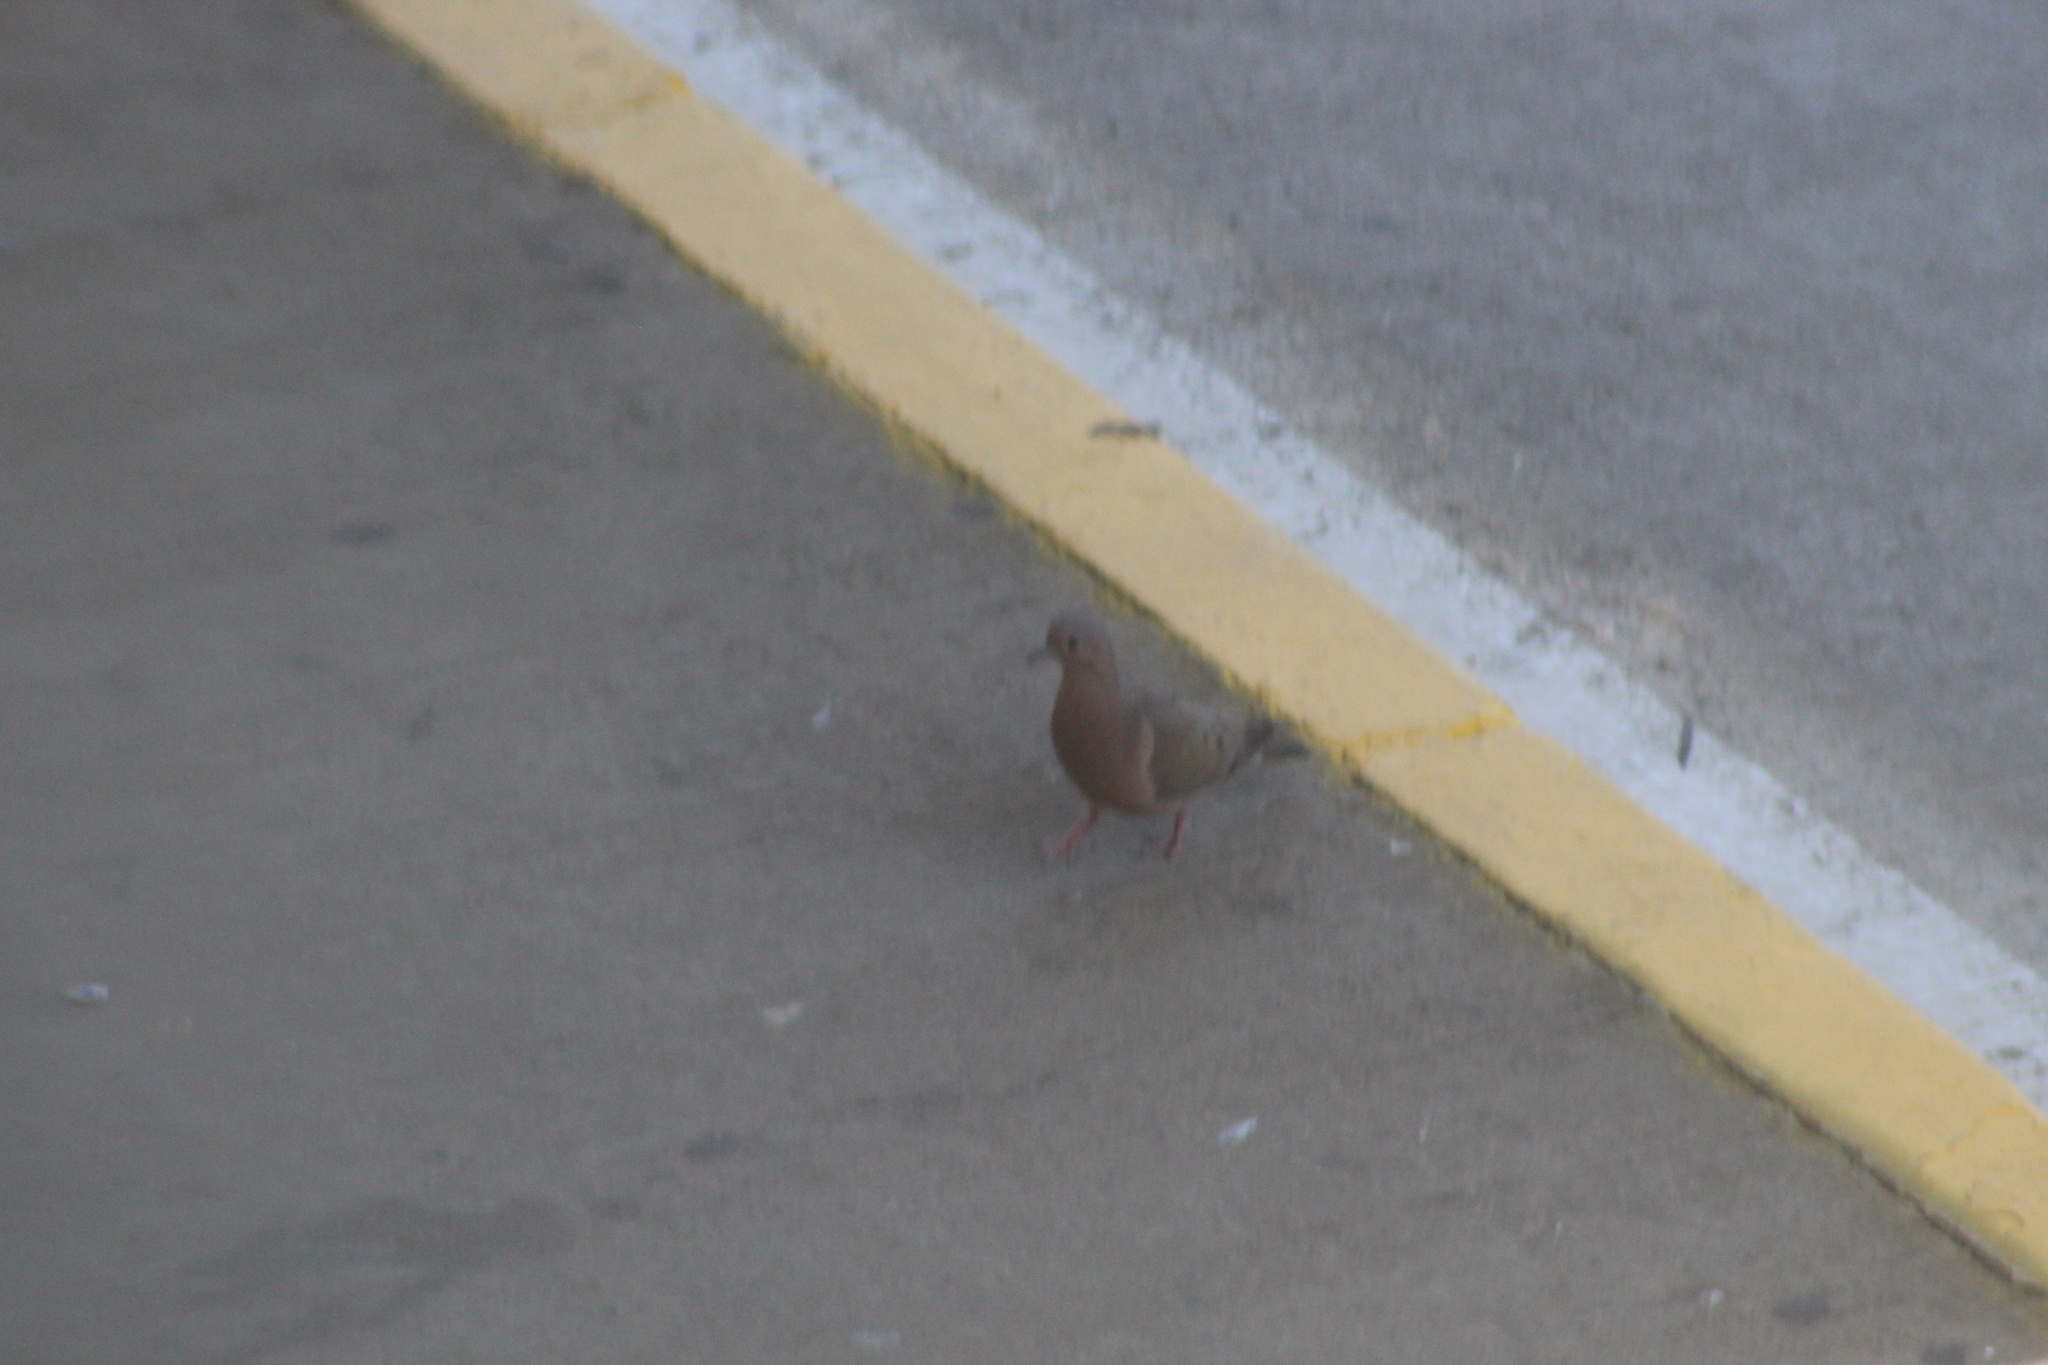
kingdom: Animalia
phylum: Chordata
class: Aves
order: Columbiformes
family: Columbidae
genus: Zenaida
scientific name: Zenaida auriculata
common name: Eared dove
